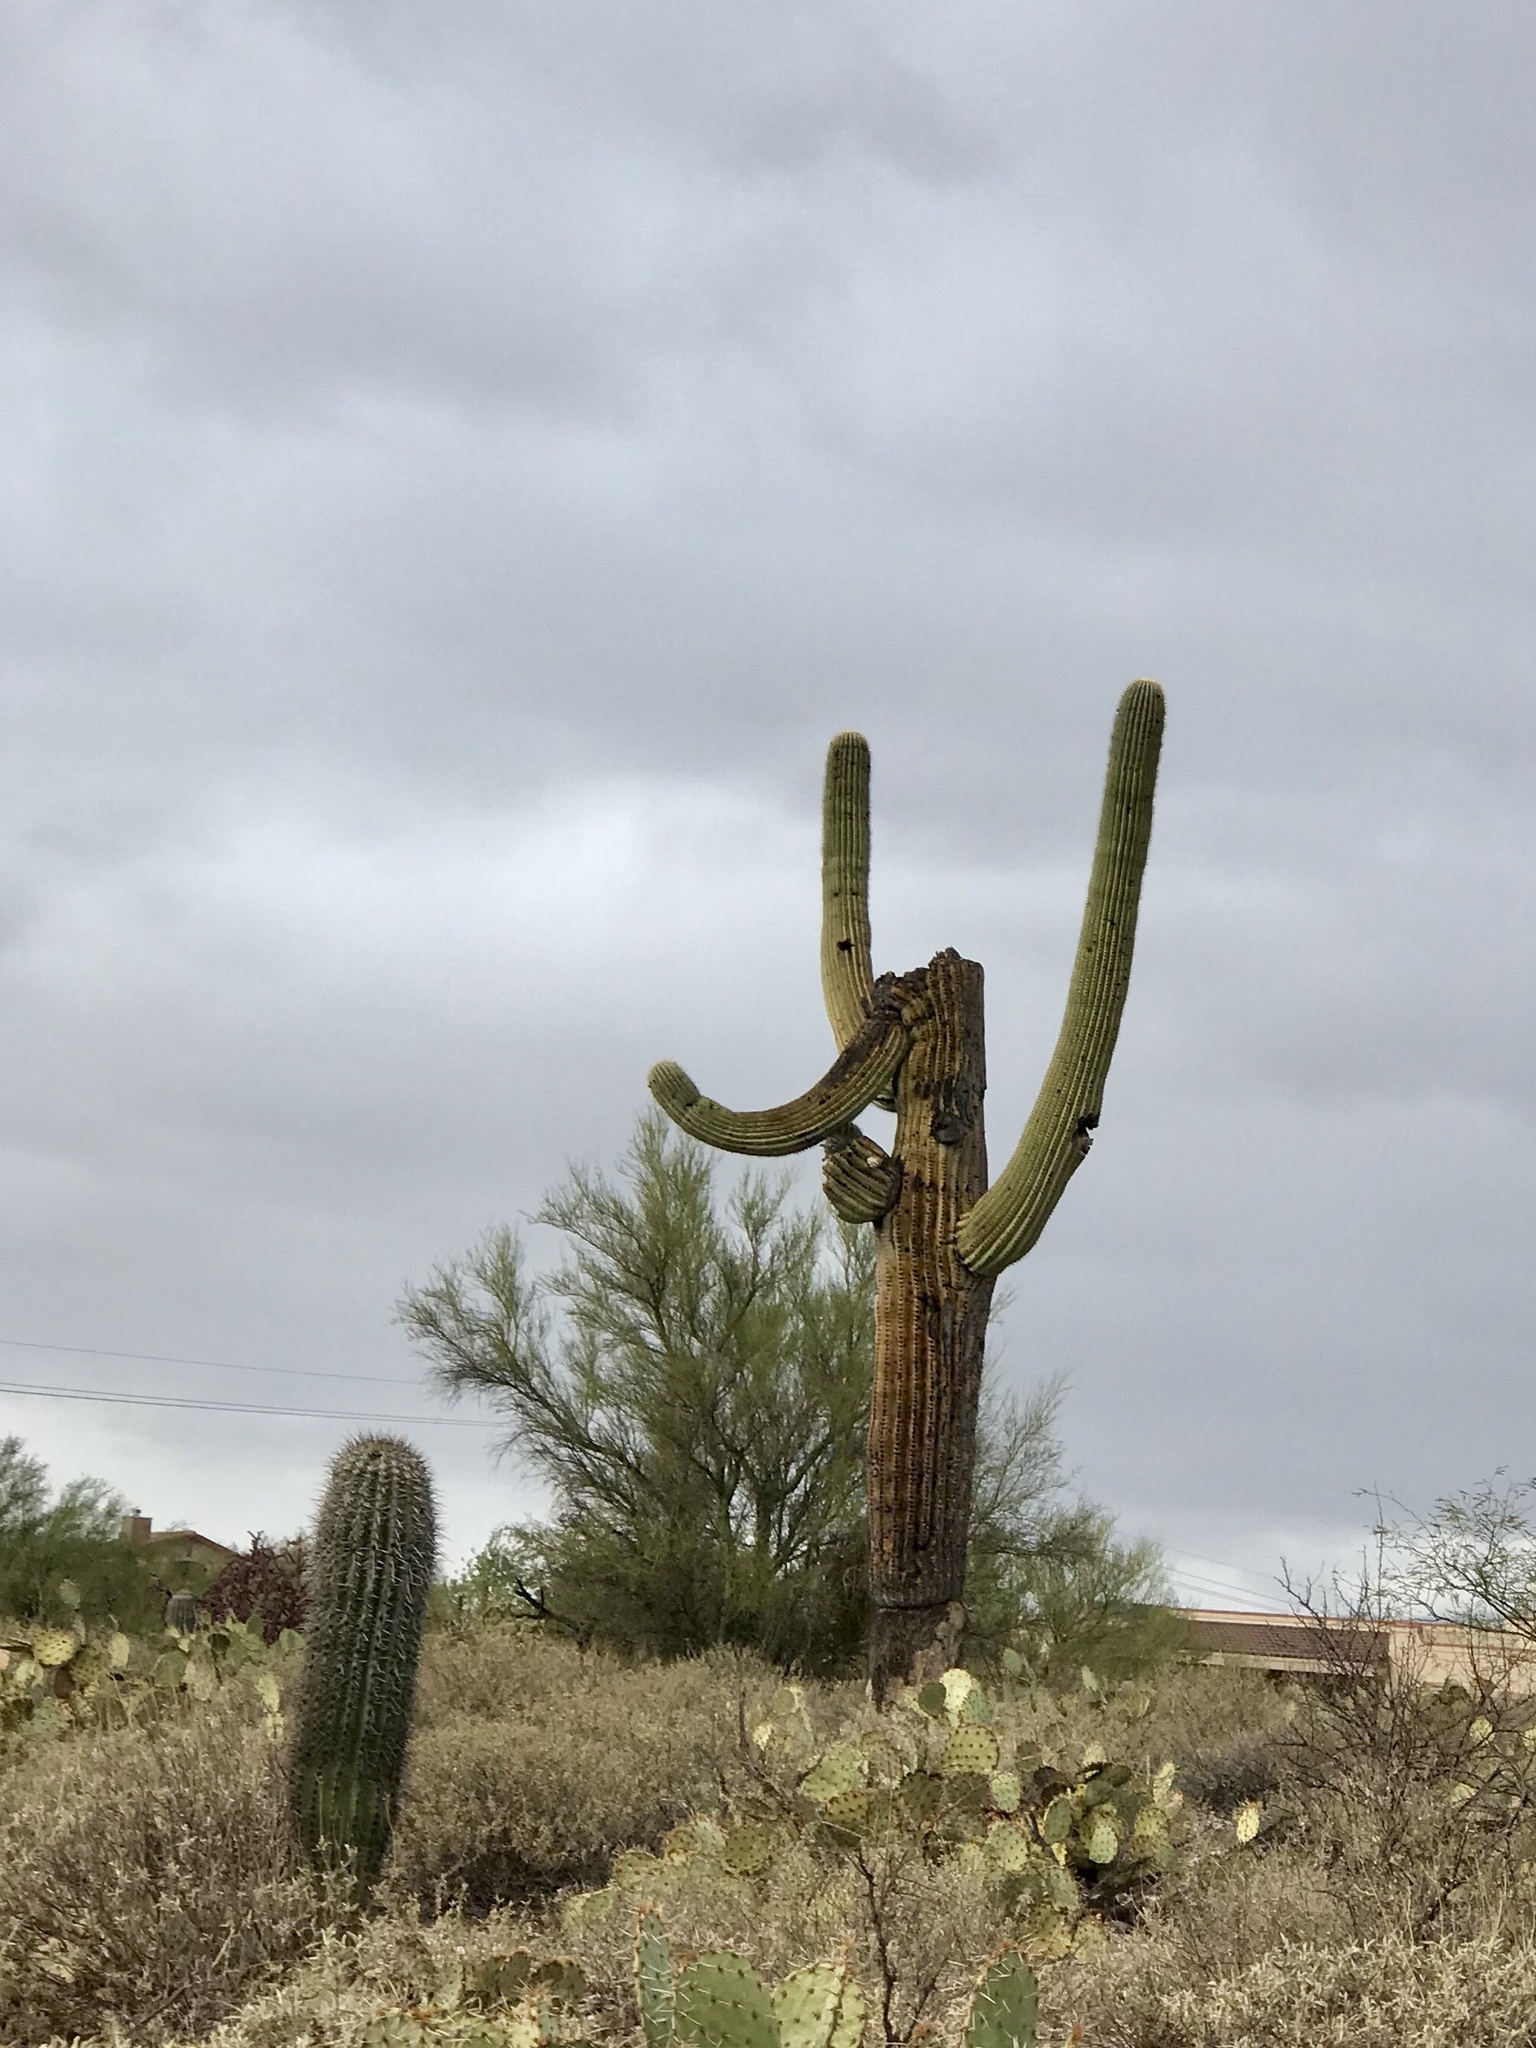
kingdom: Plantae
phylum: Tracheophyta
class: Magnoliopsida
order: Caryophyllales
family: Cactaceae
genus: Carnegiea
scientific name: Carnegiea gigantea
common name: Saguaro
